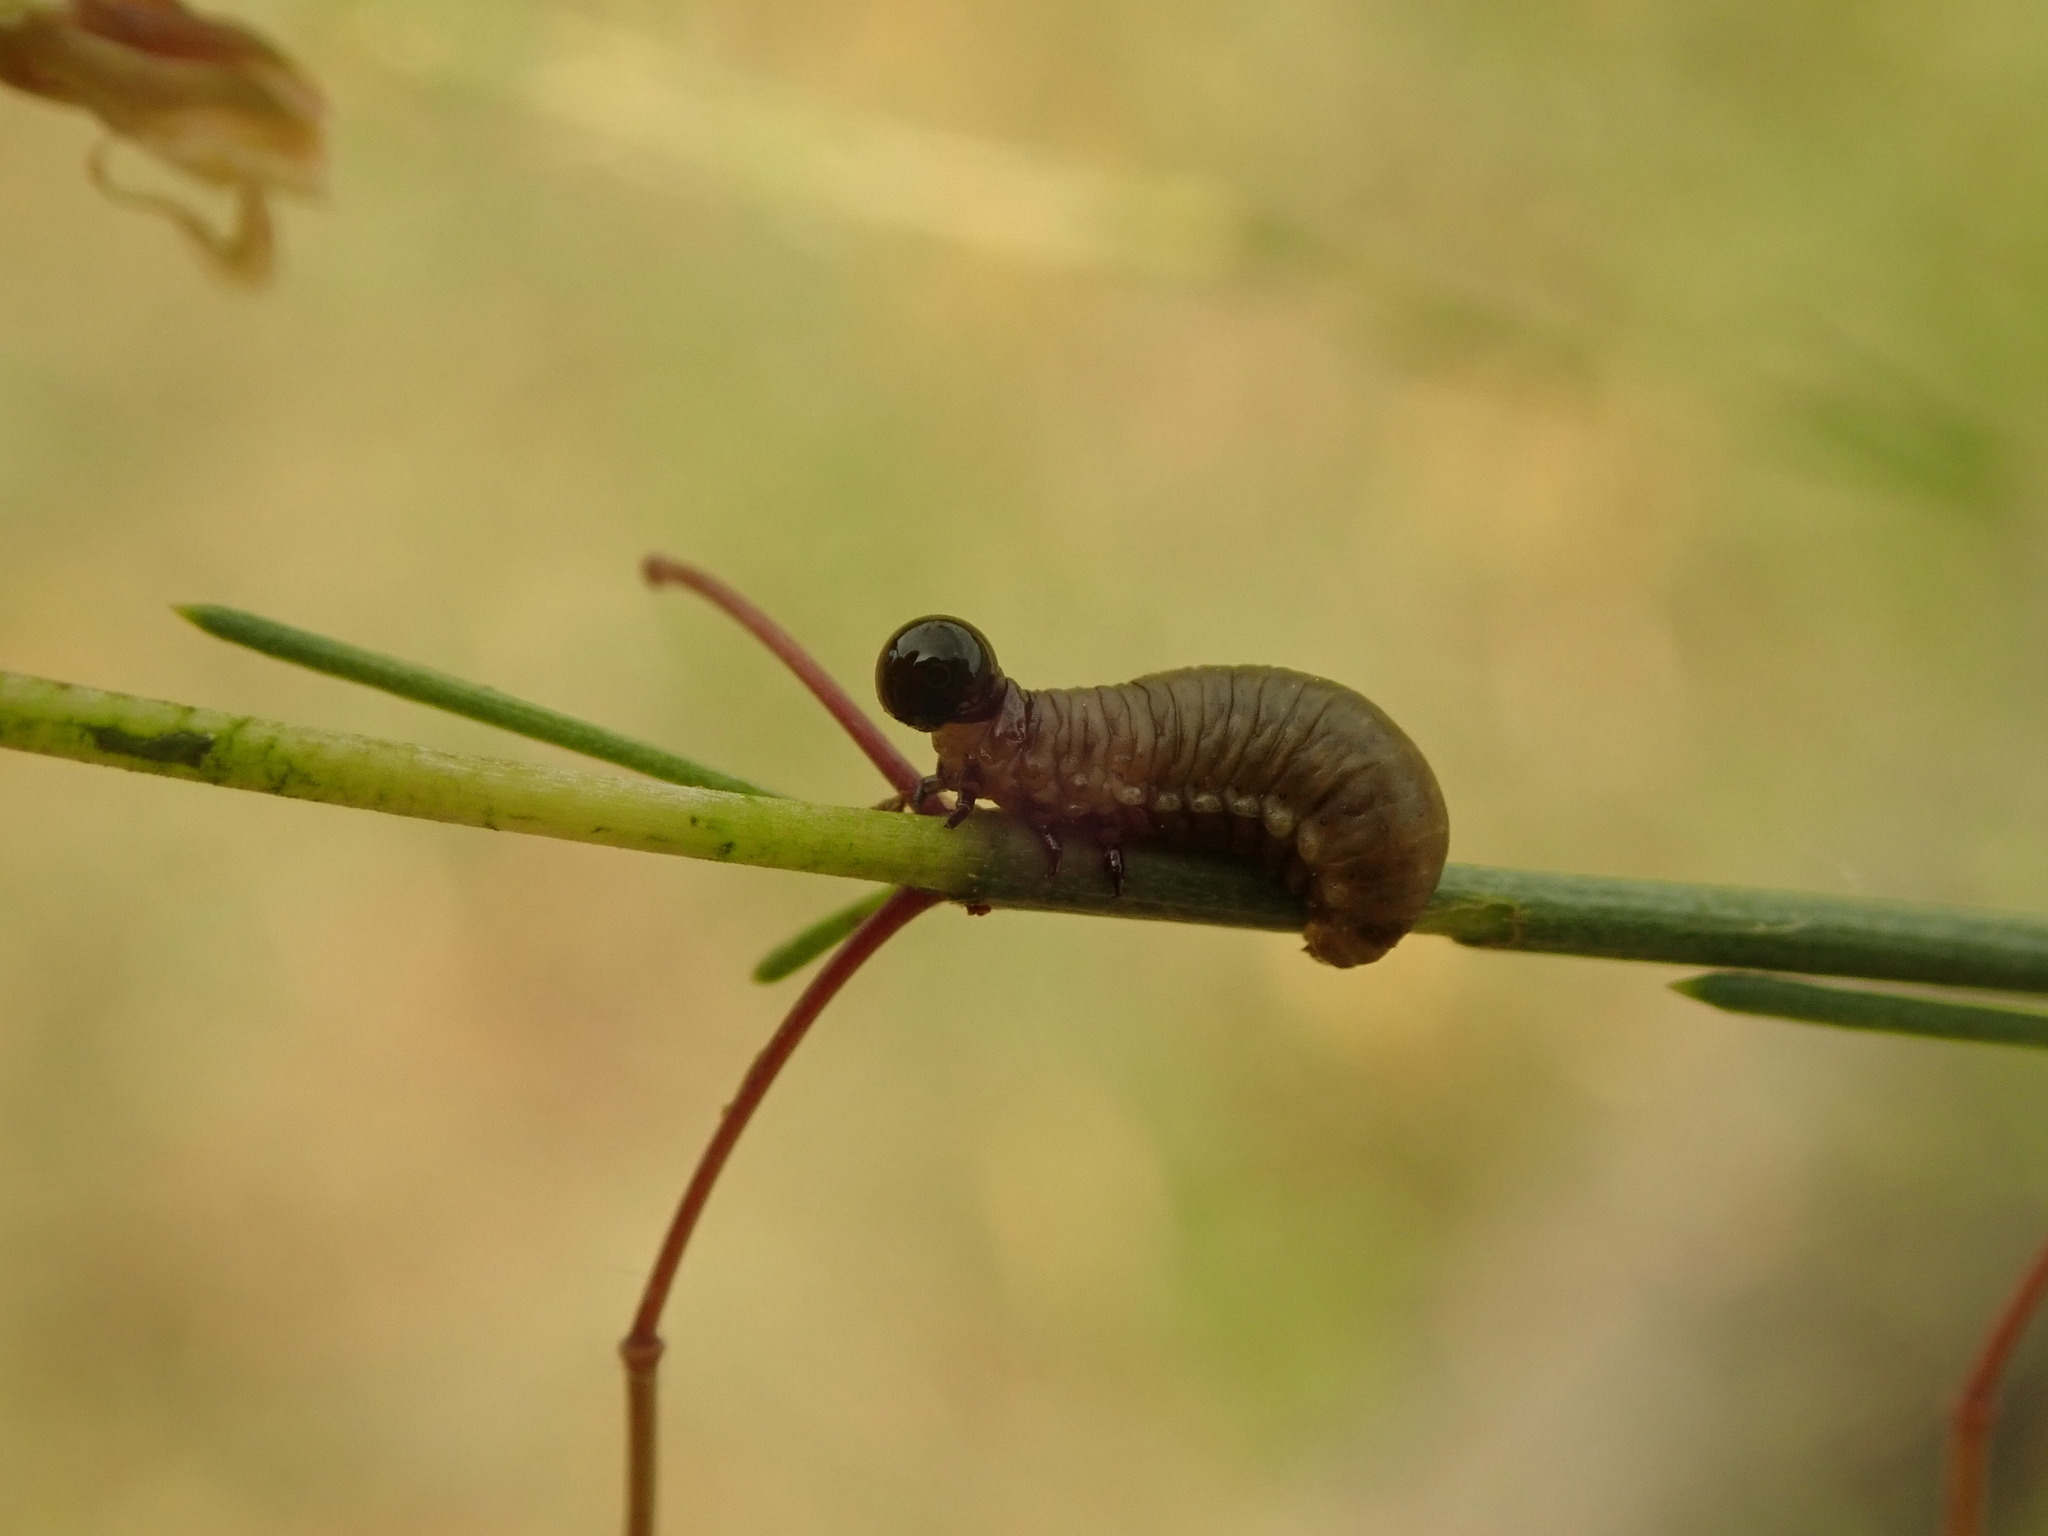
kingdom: Animalia
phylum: Arthropoda
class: Insecta
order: Coleoptera
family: Chrysomelidae
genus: Crioceris
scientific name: Crioceris asparagi
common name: Asparagus beetle
